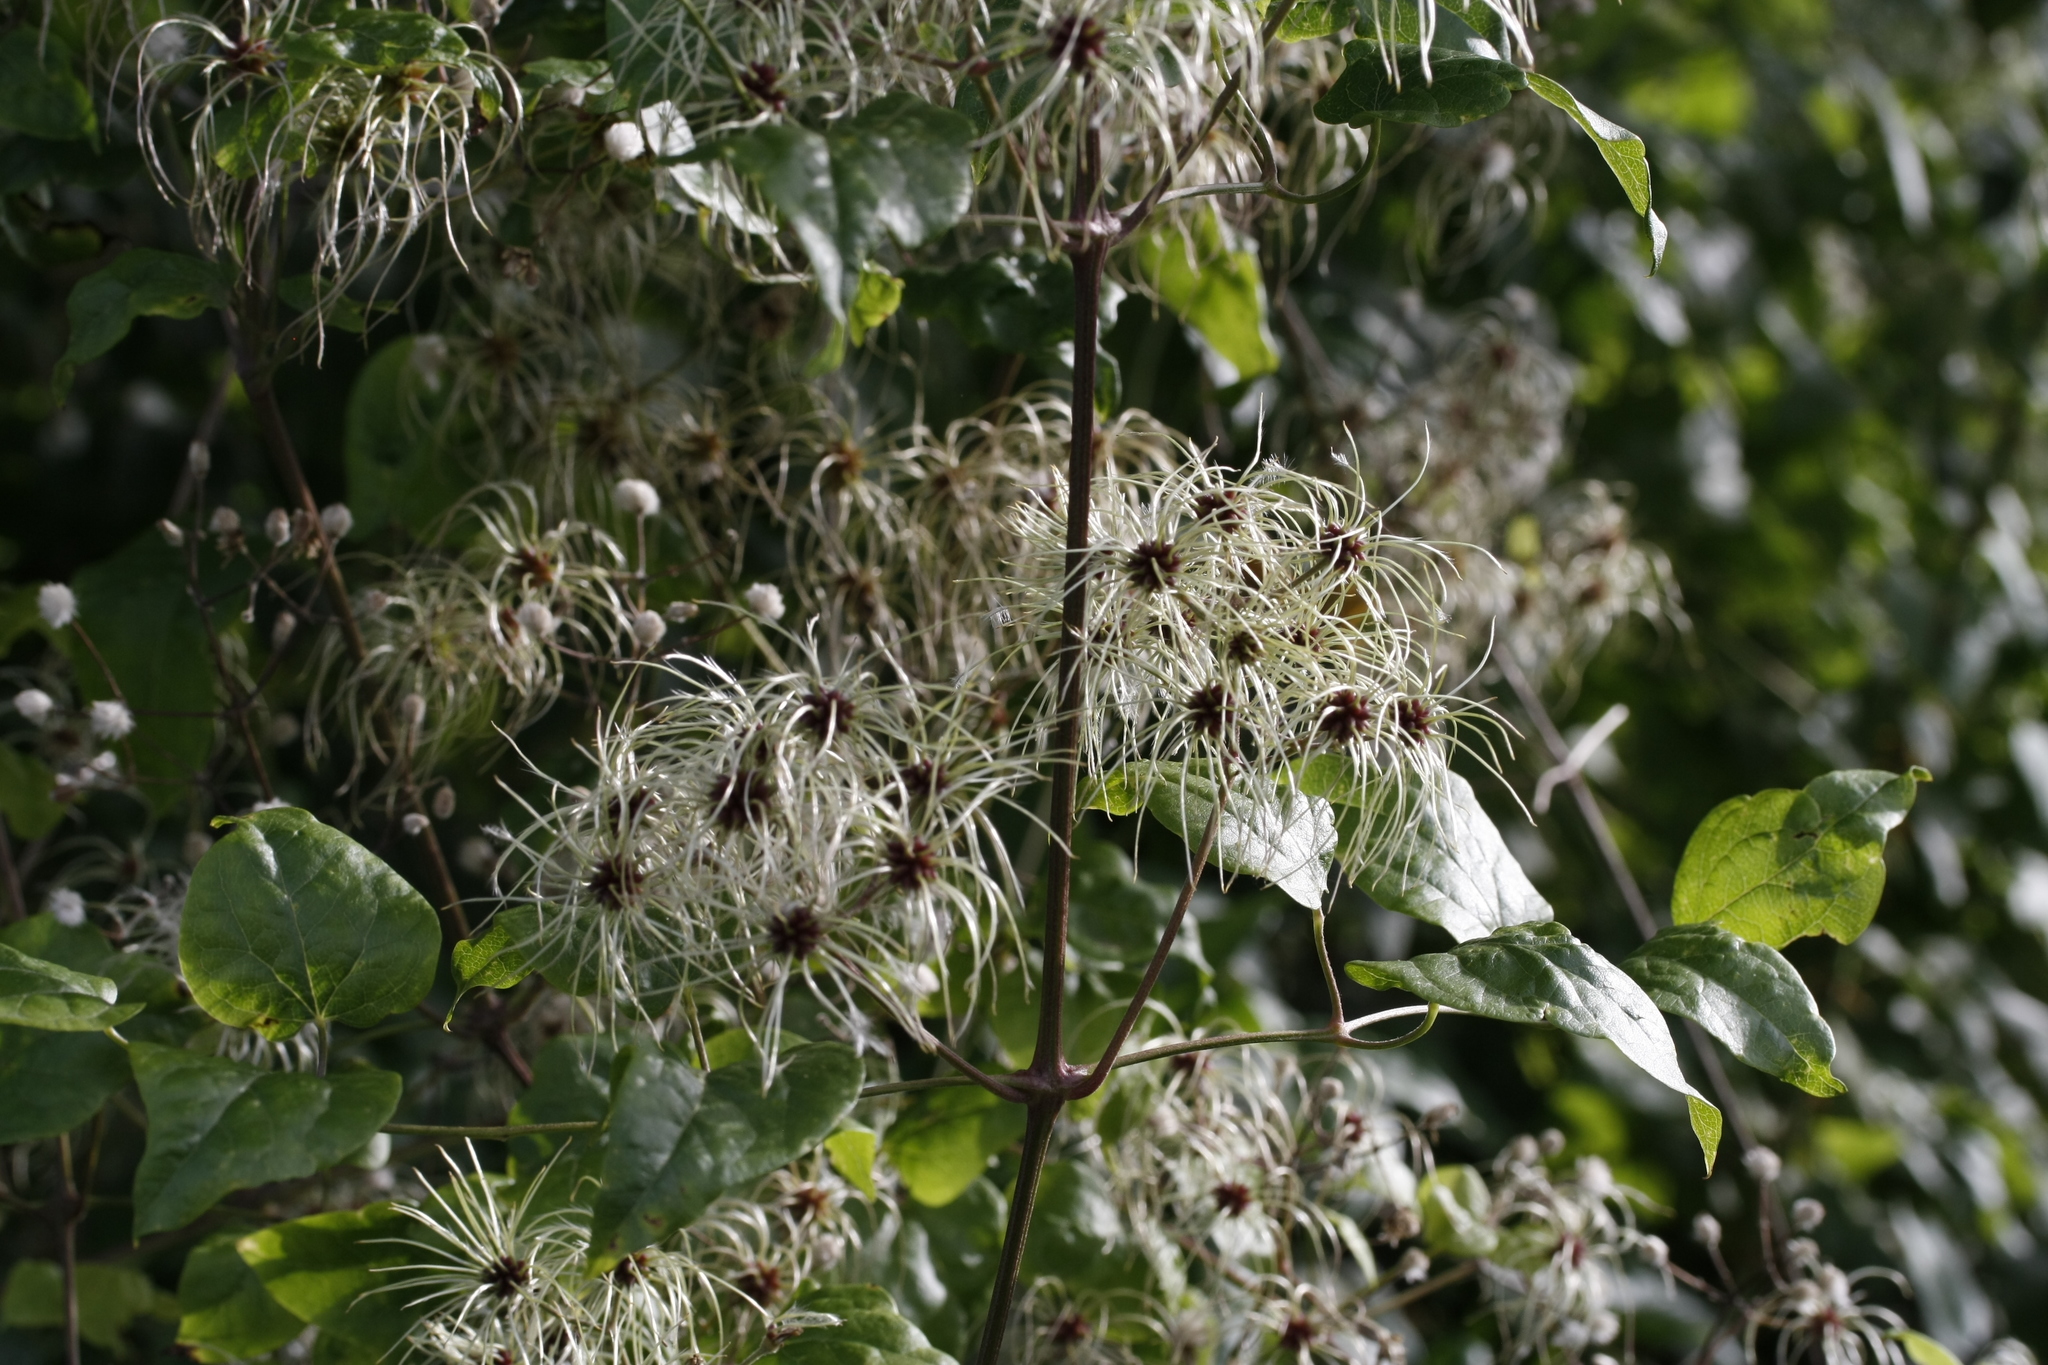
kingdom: Plantae
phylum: Tracheophyta
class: Magnoliopsida
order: Ranunculales
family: Ranunculaceae
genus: Clematis
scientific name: Clematis vitalba
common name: Evergreen clematis
